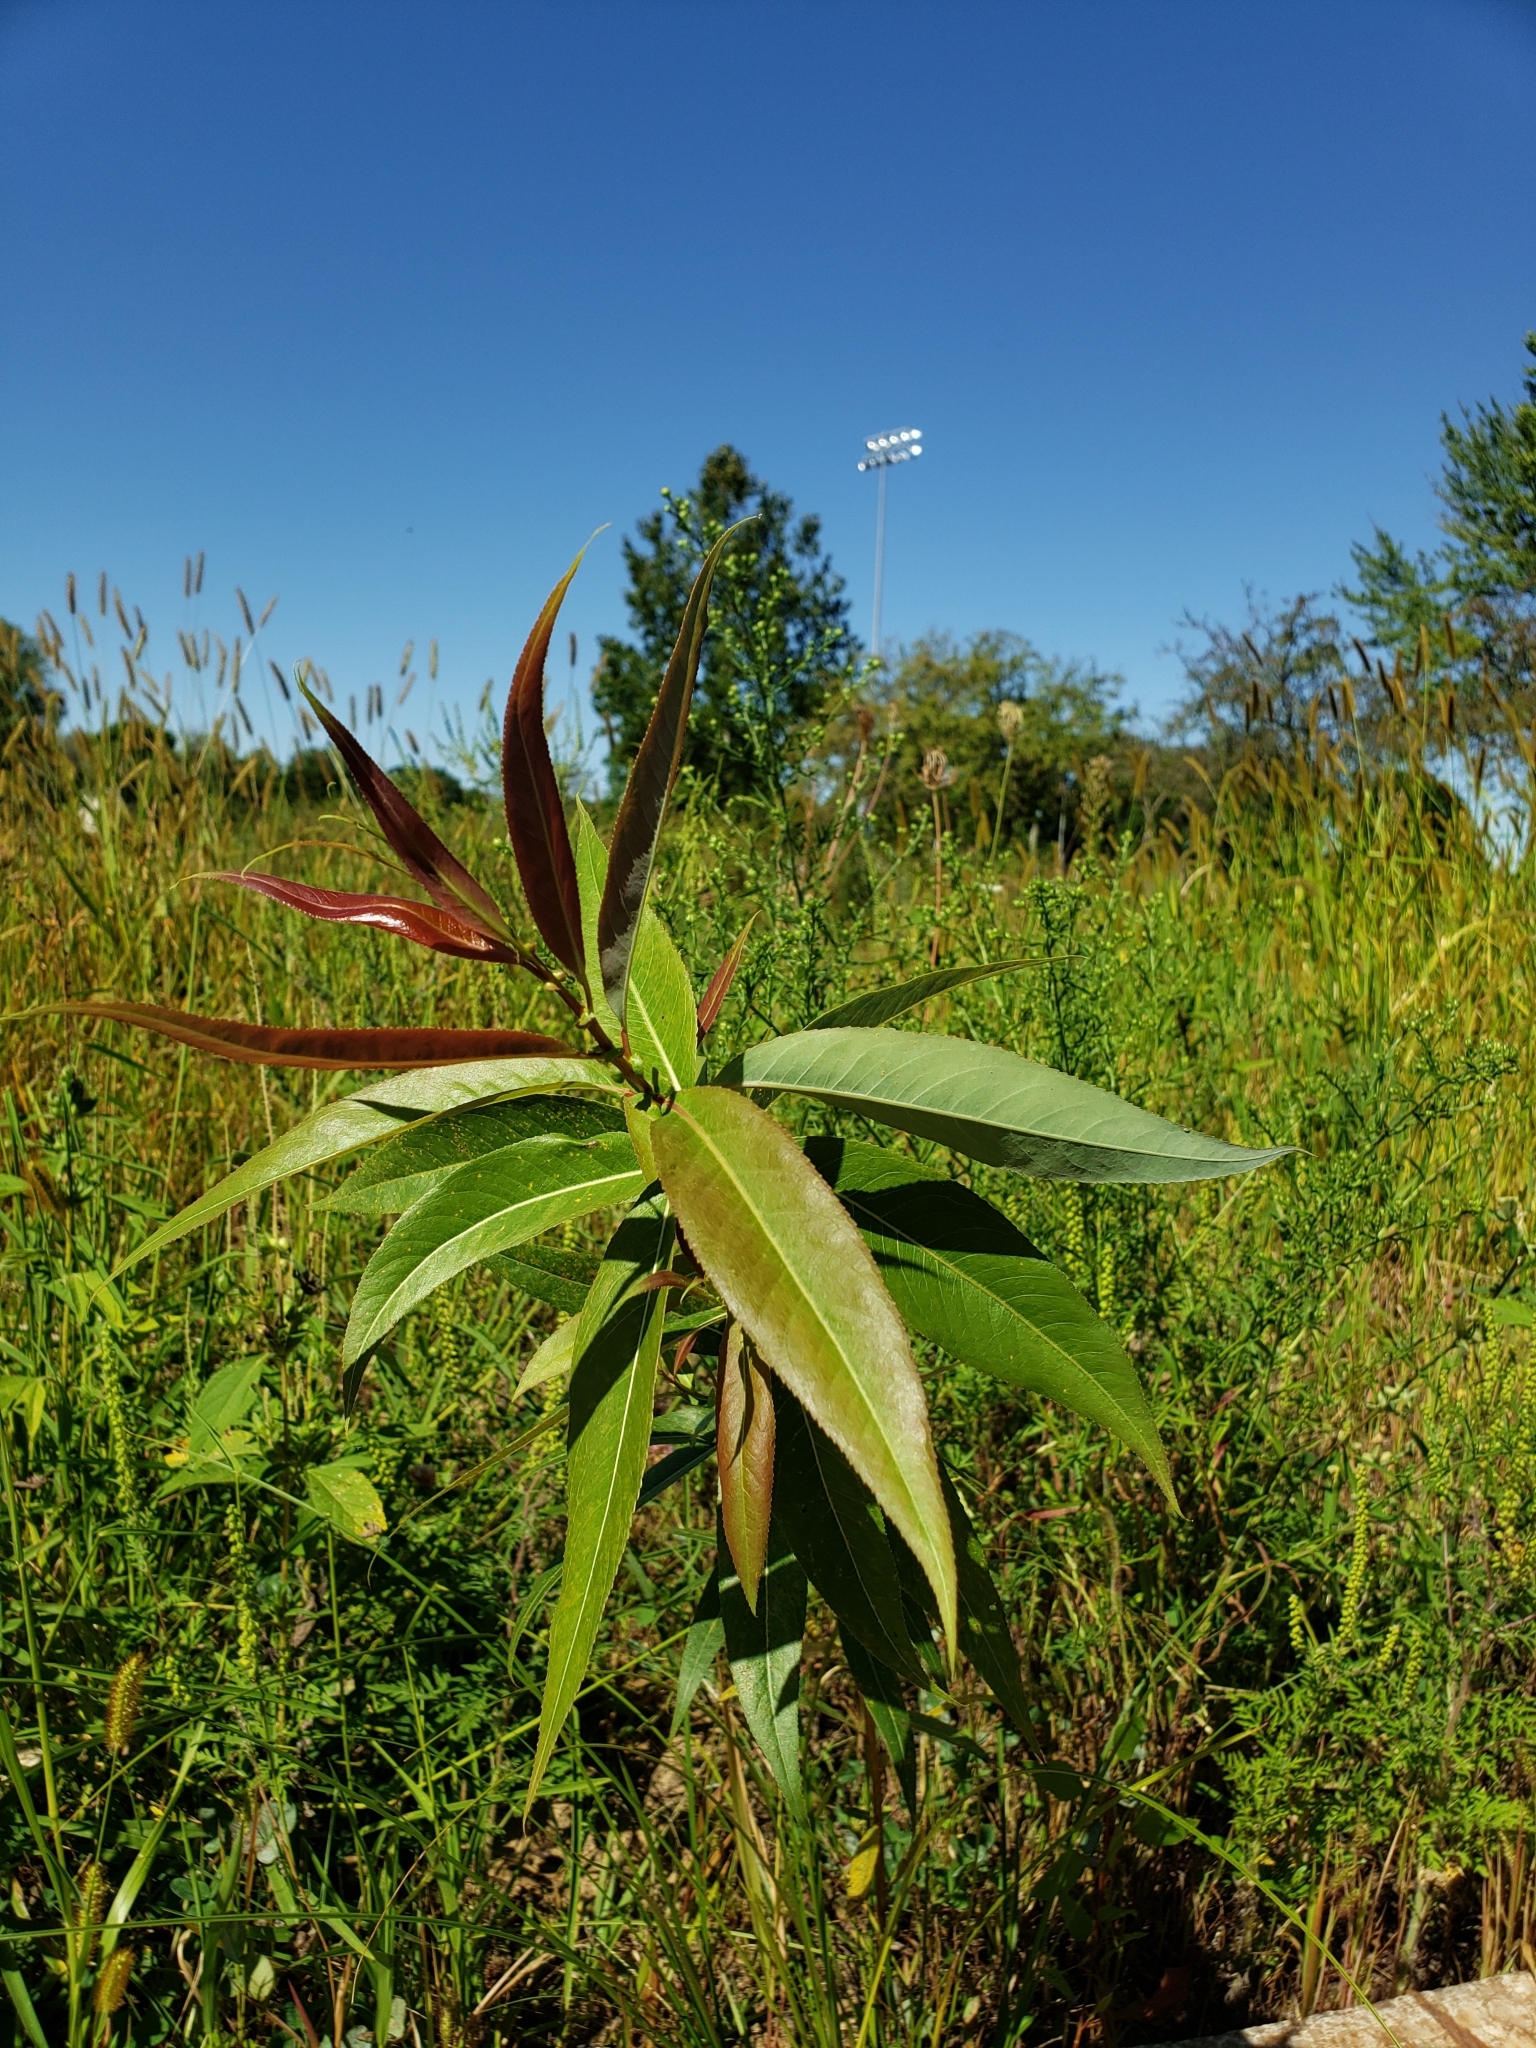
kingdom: Plantae
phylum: Tracheophyta
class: Magnoliopsida
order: Malpighiales
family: Salicaceae
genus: Salix
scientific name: Salix eriocephala
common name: Heart-leaved willow
